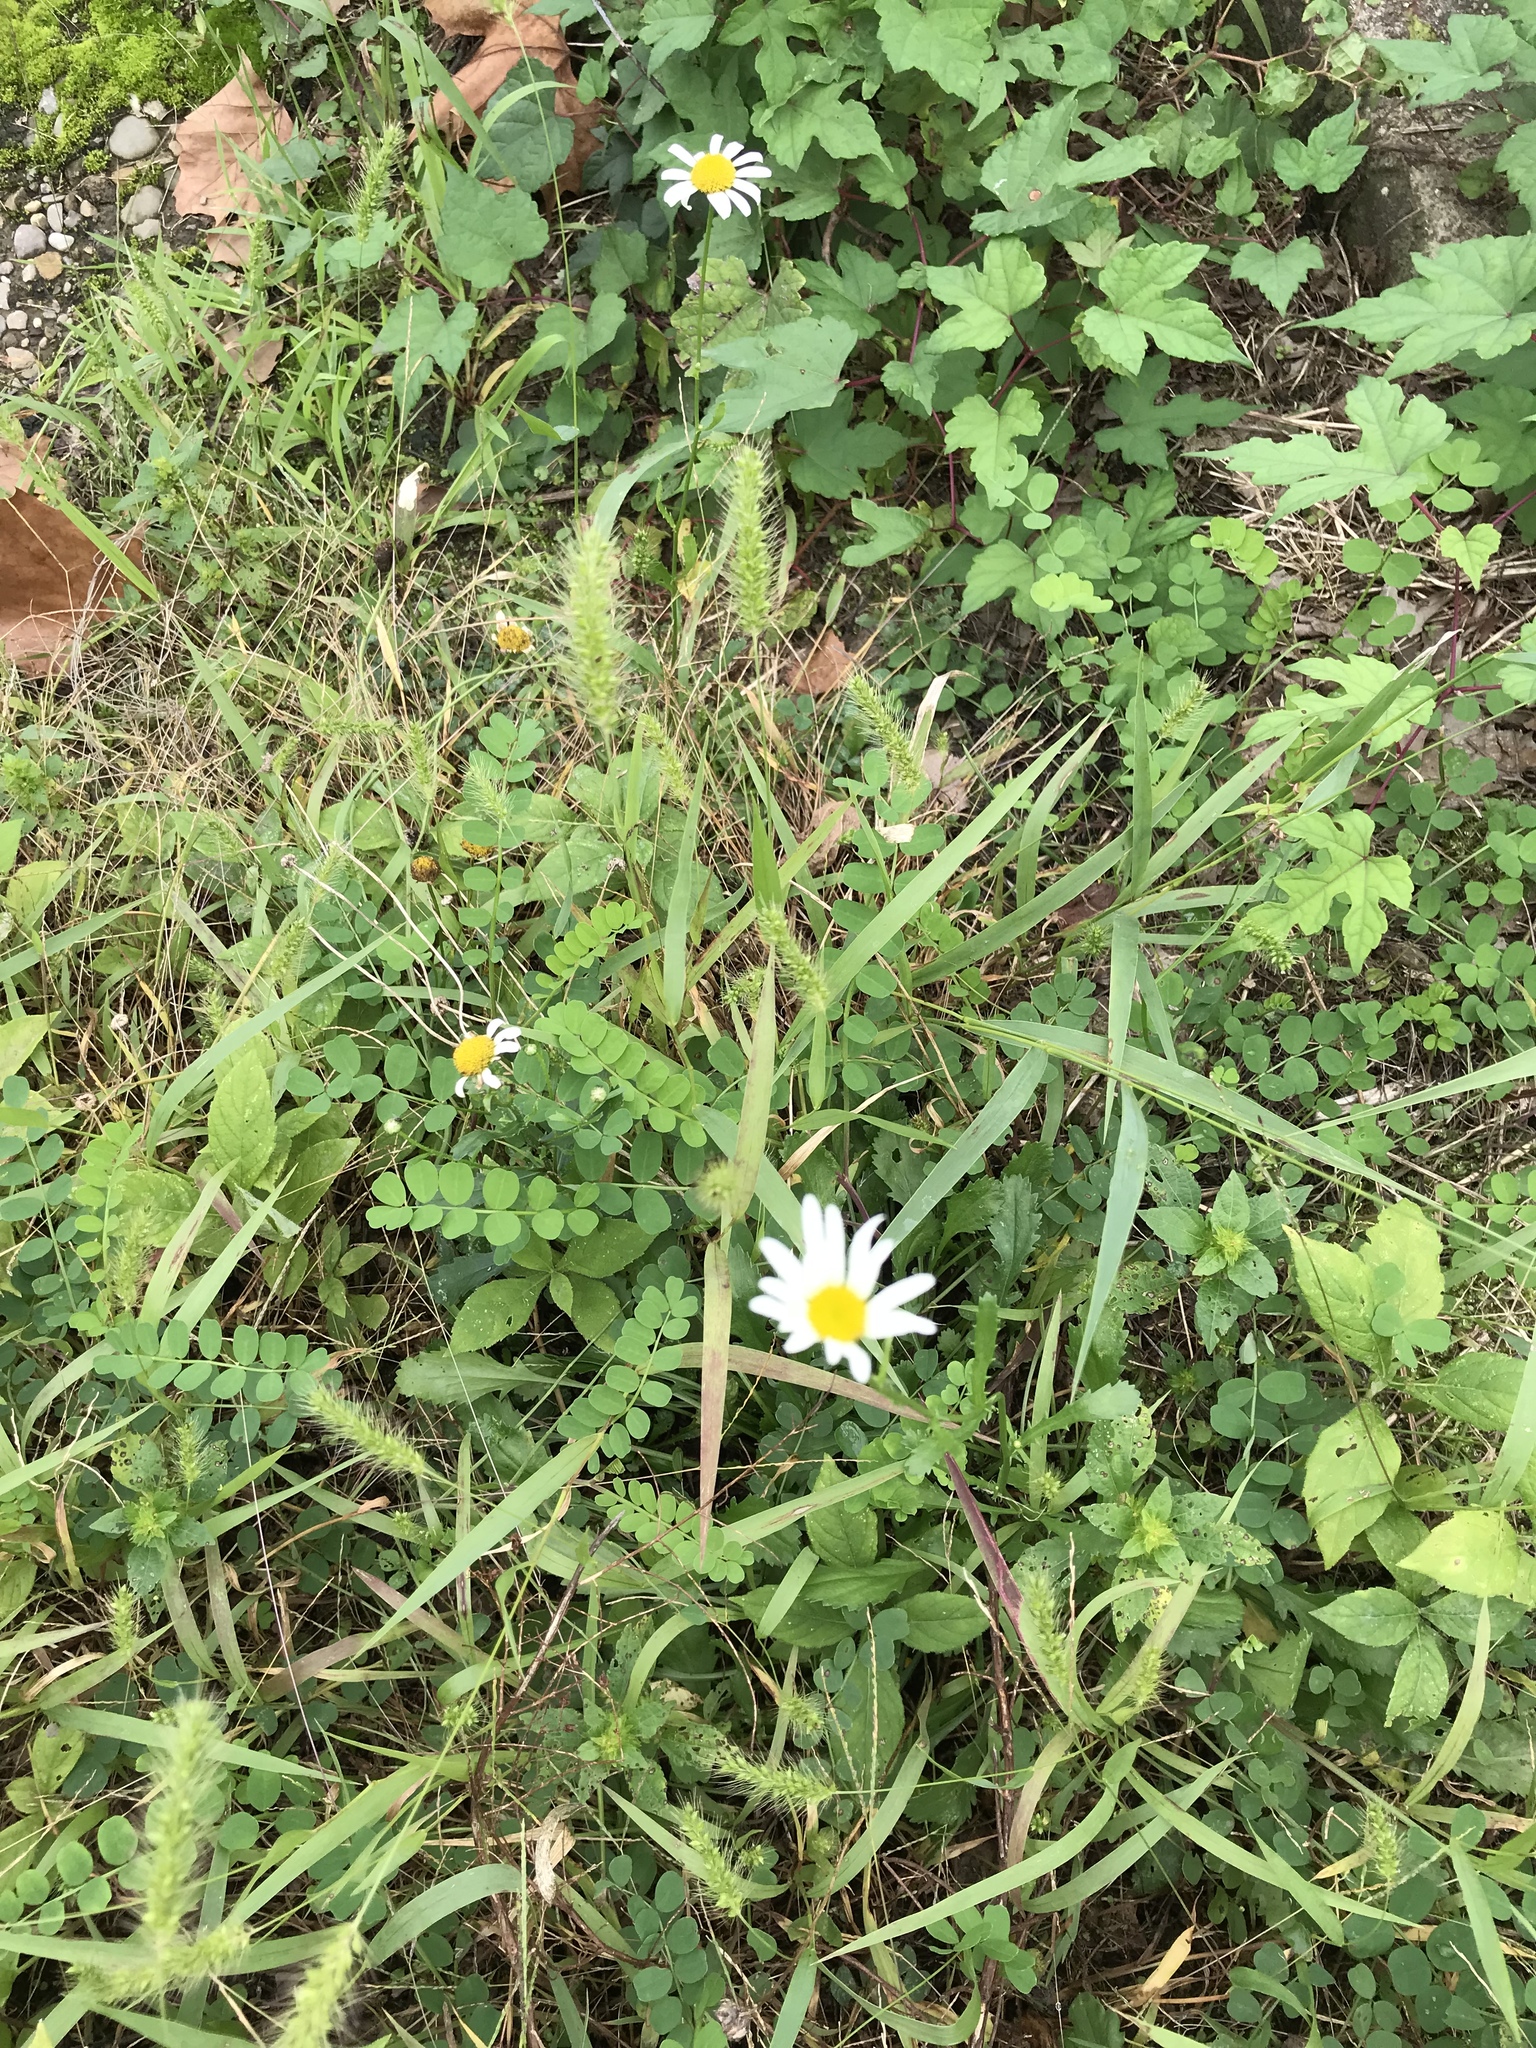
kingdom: Plantae
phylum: Tracheophyta
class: Magnoliopsida
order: Asterales
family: Asteraceae
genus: Leucanthemum
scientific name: Leucanthemum vulgare
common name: Oxeye daisy
